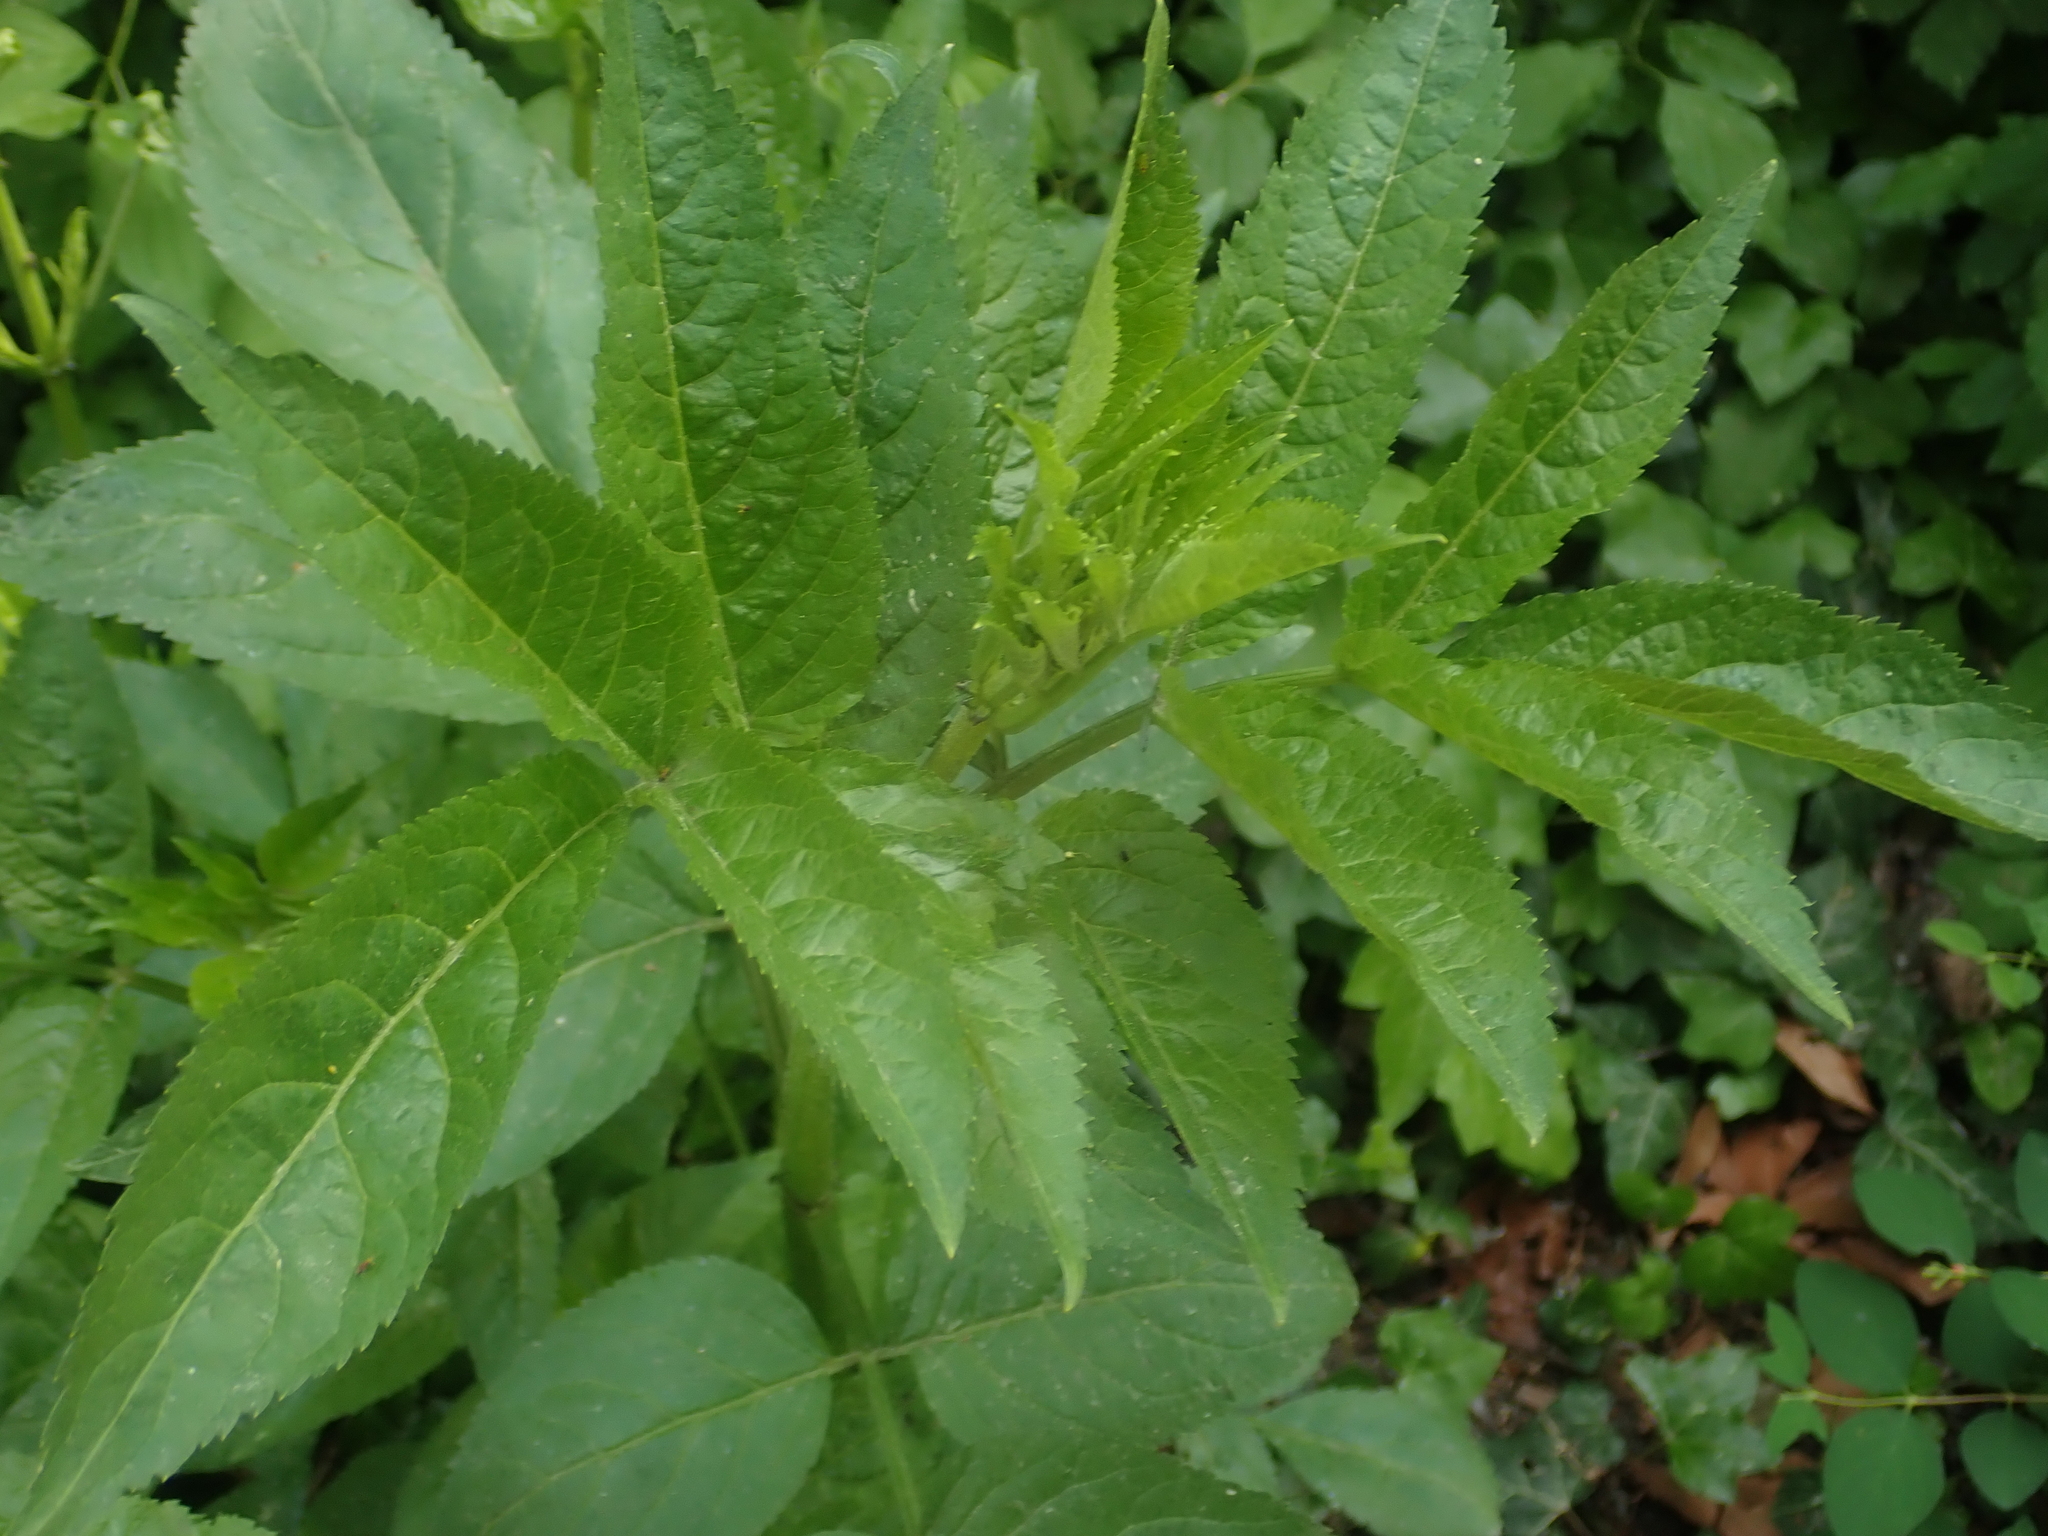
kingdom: Plantae
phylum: Tracheophyta
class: Magnoliopsida
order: Dipsacales
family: Viburnaceae
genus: Sambucus
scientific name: Sambucus nigra
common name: Elder
